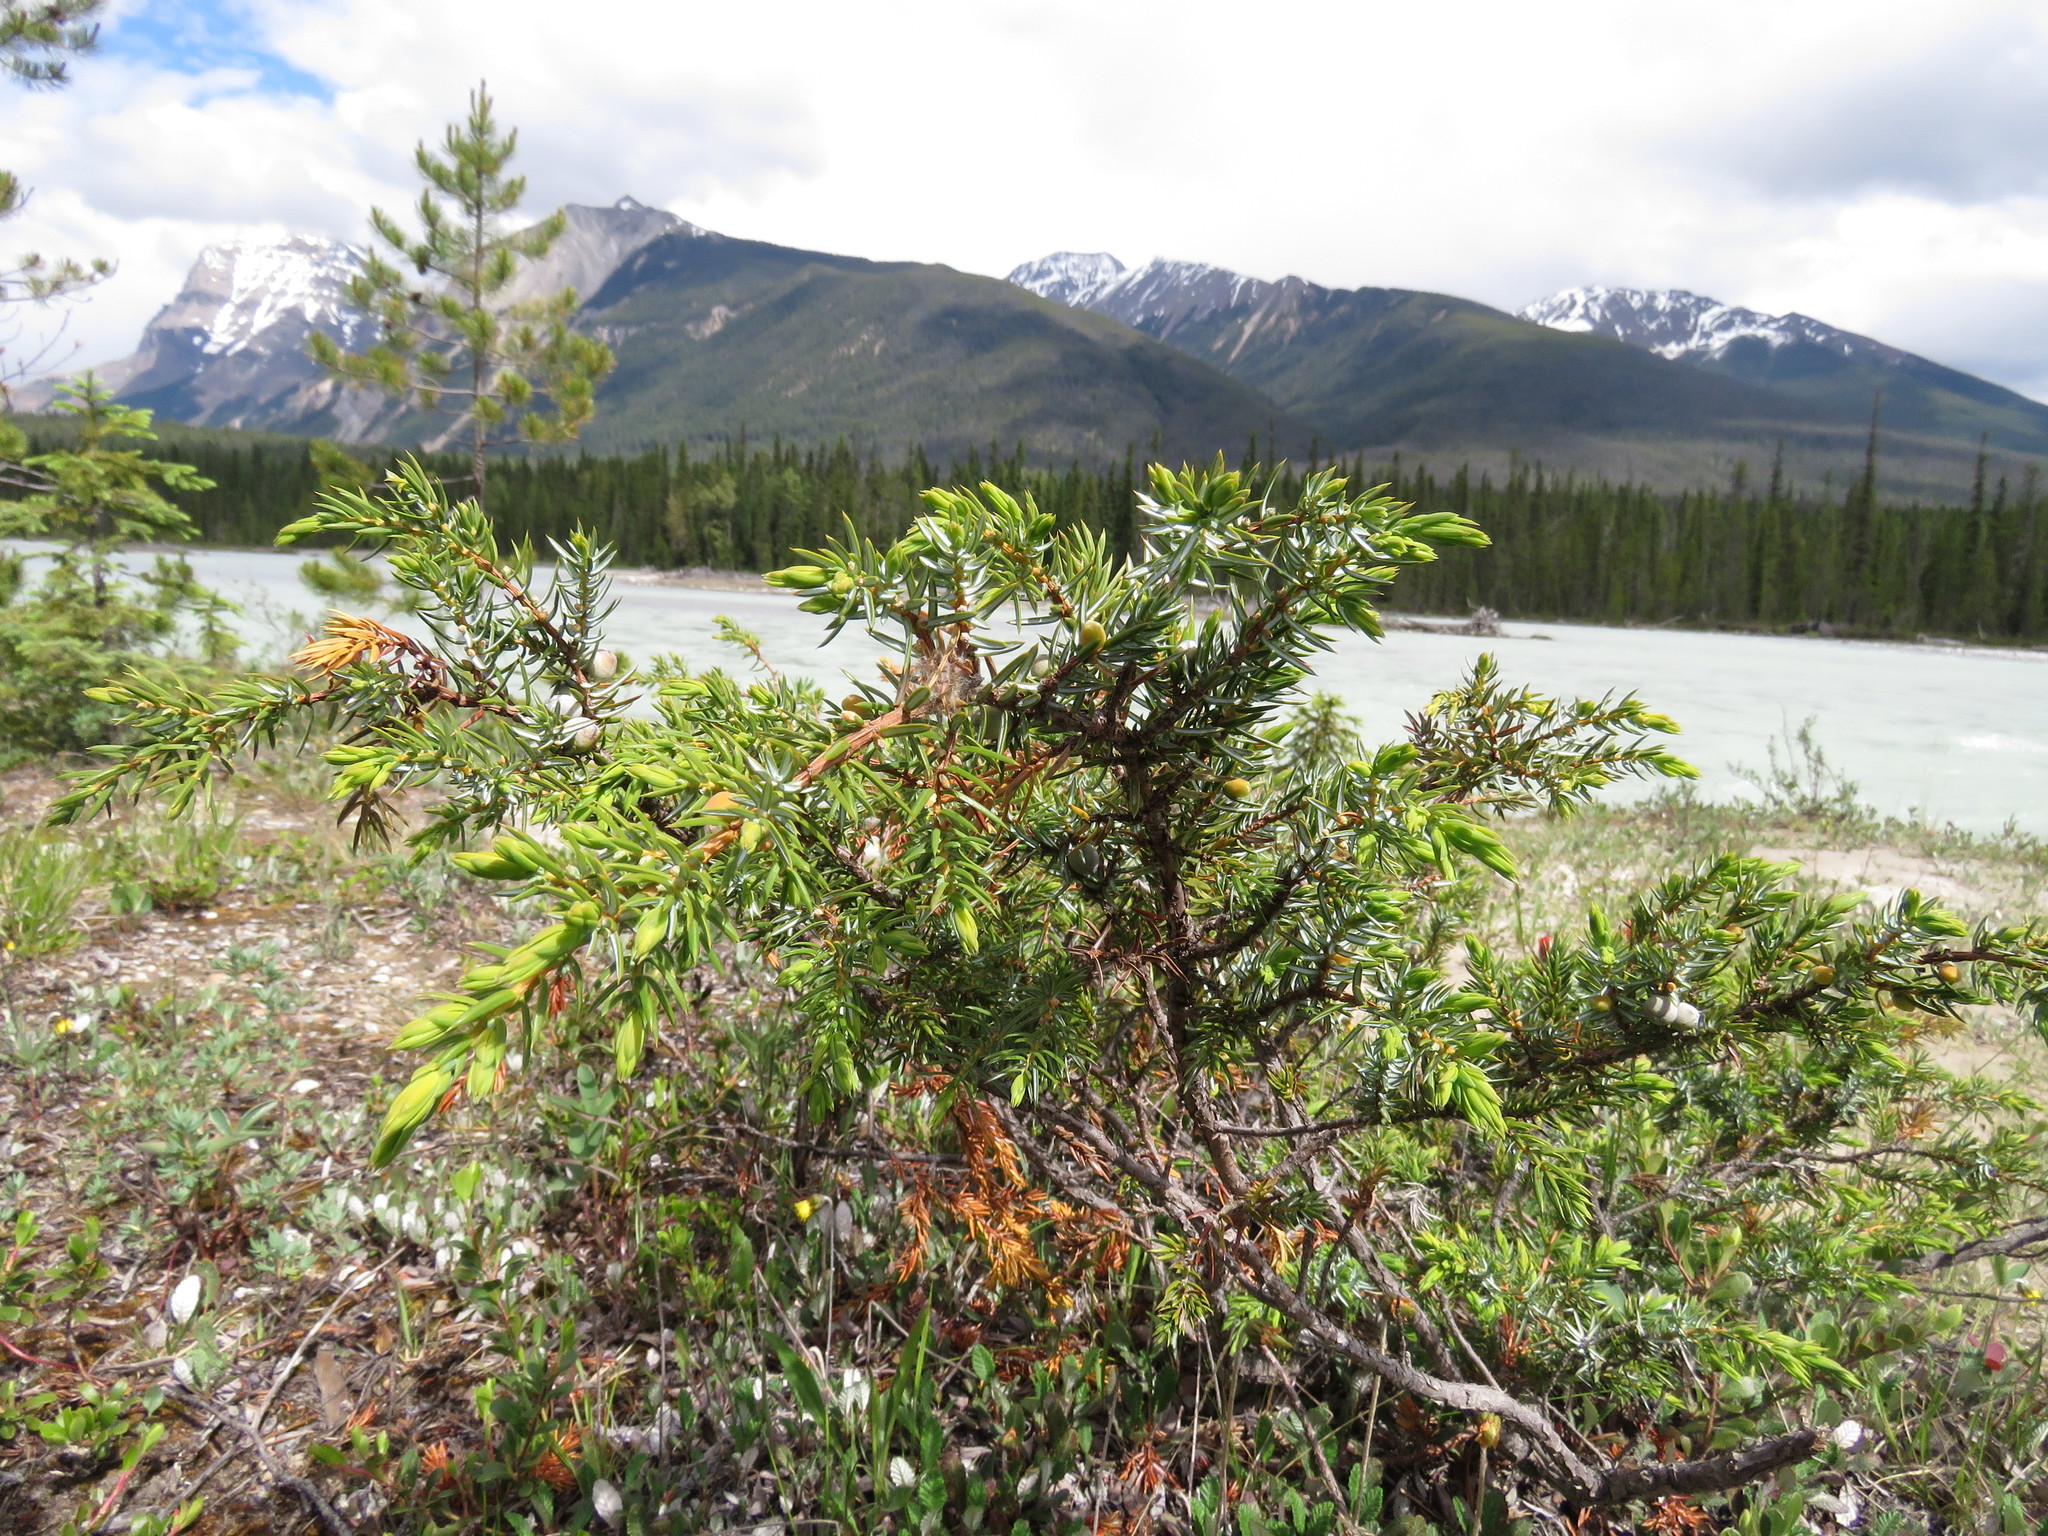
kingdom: Plantae
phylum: Tracheophyta
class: Pinopsida
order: Pinales
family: Cupressaceae
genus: Juniperus
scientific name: Juniperus communis
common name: Common juniper
